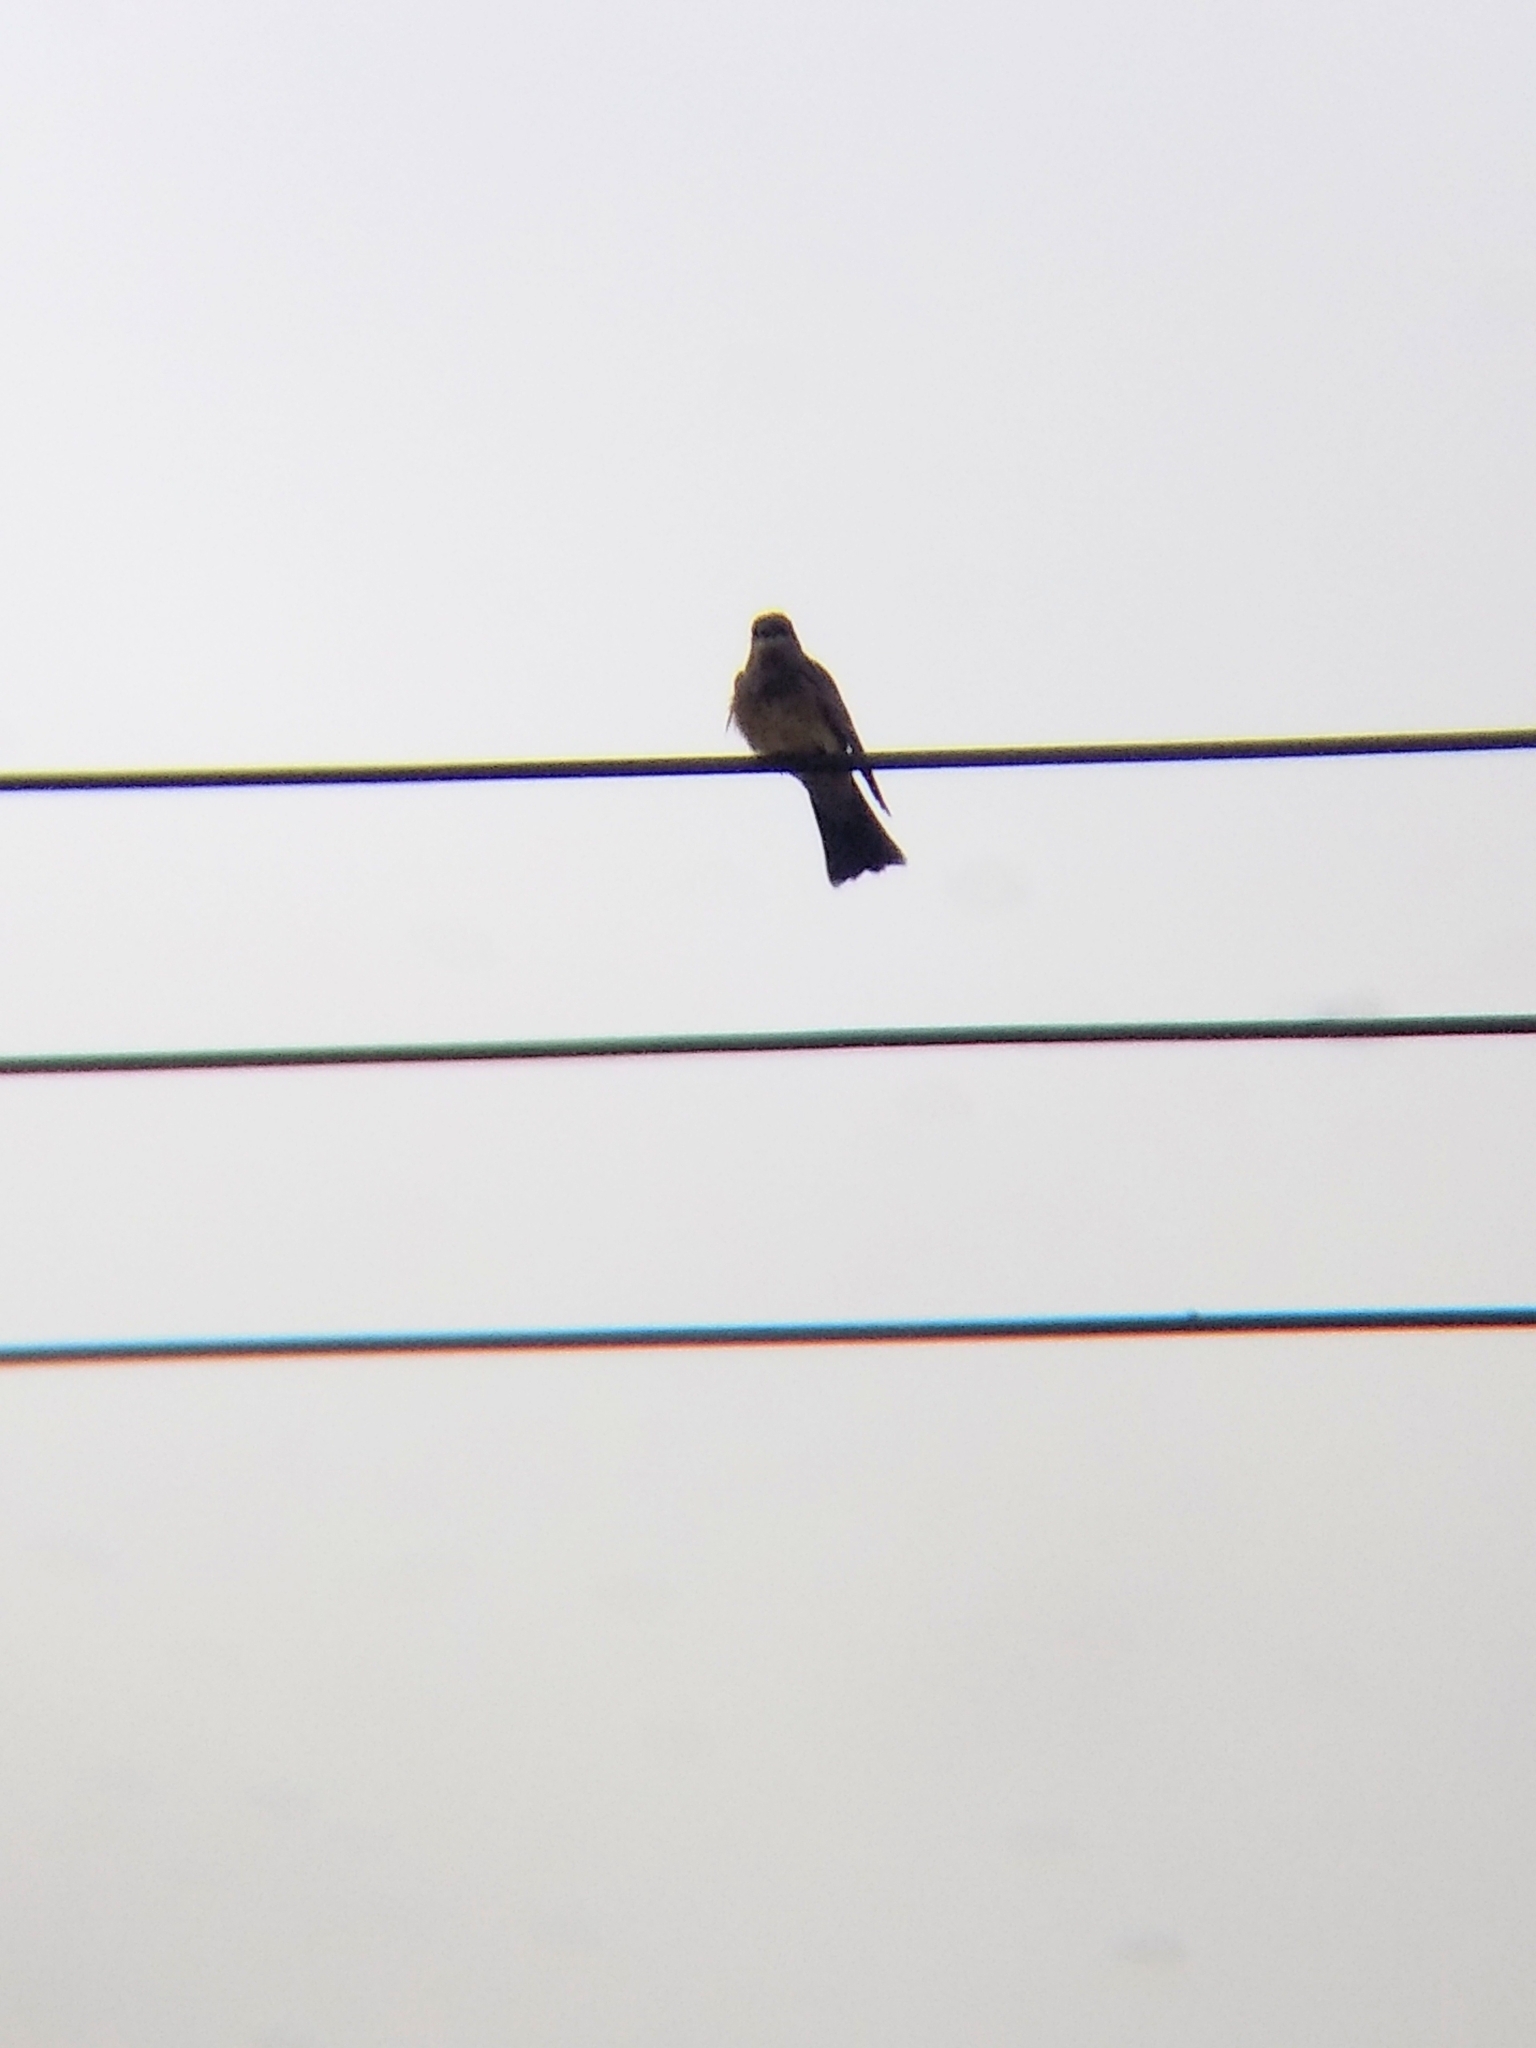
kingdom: Animalia
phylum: Chordata
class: Aves
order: Passeriformes
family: Tyrannidae
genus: Tyrannus
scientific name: Tyrannus vociferans
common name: Cassin's kingbird
